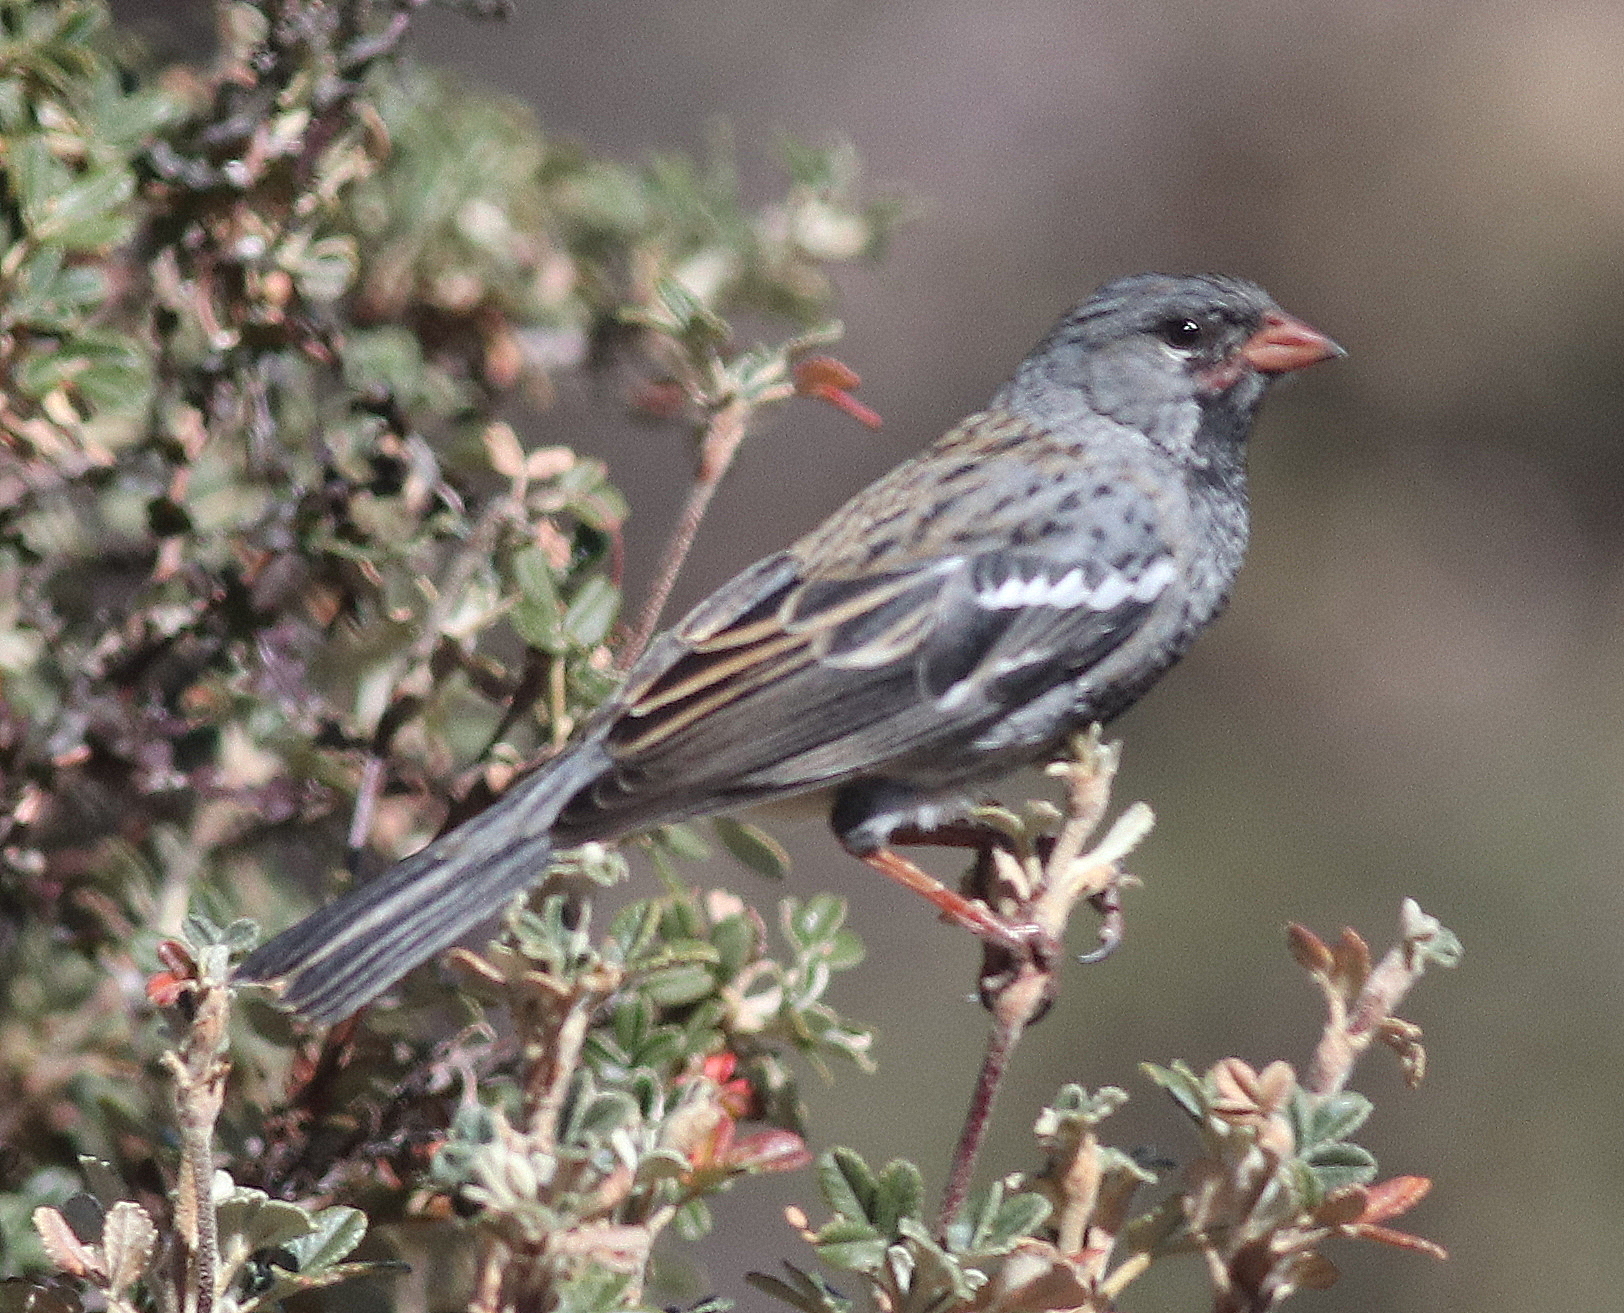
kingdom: Animalia
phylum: Chordata
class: Aves
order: Passeriformes
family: Thraupidae
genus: Rhopospina
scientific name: Rhopospina fruticeti
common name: Mourning sierra finch
